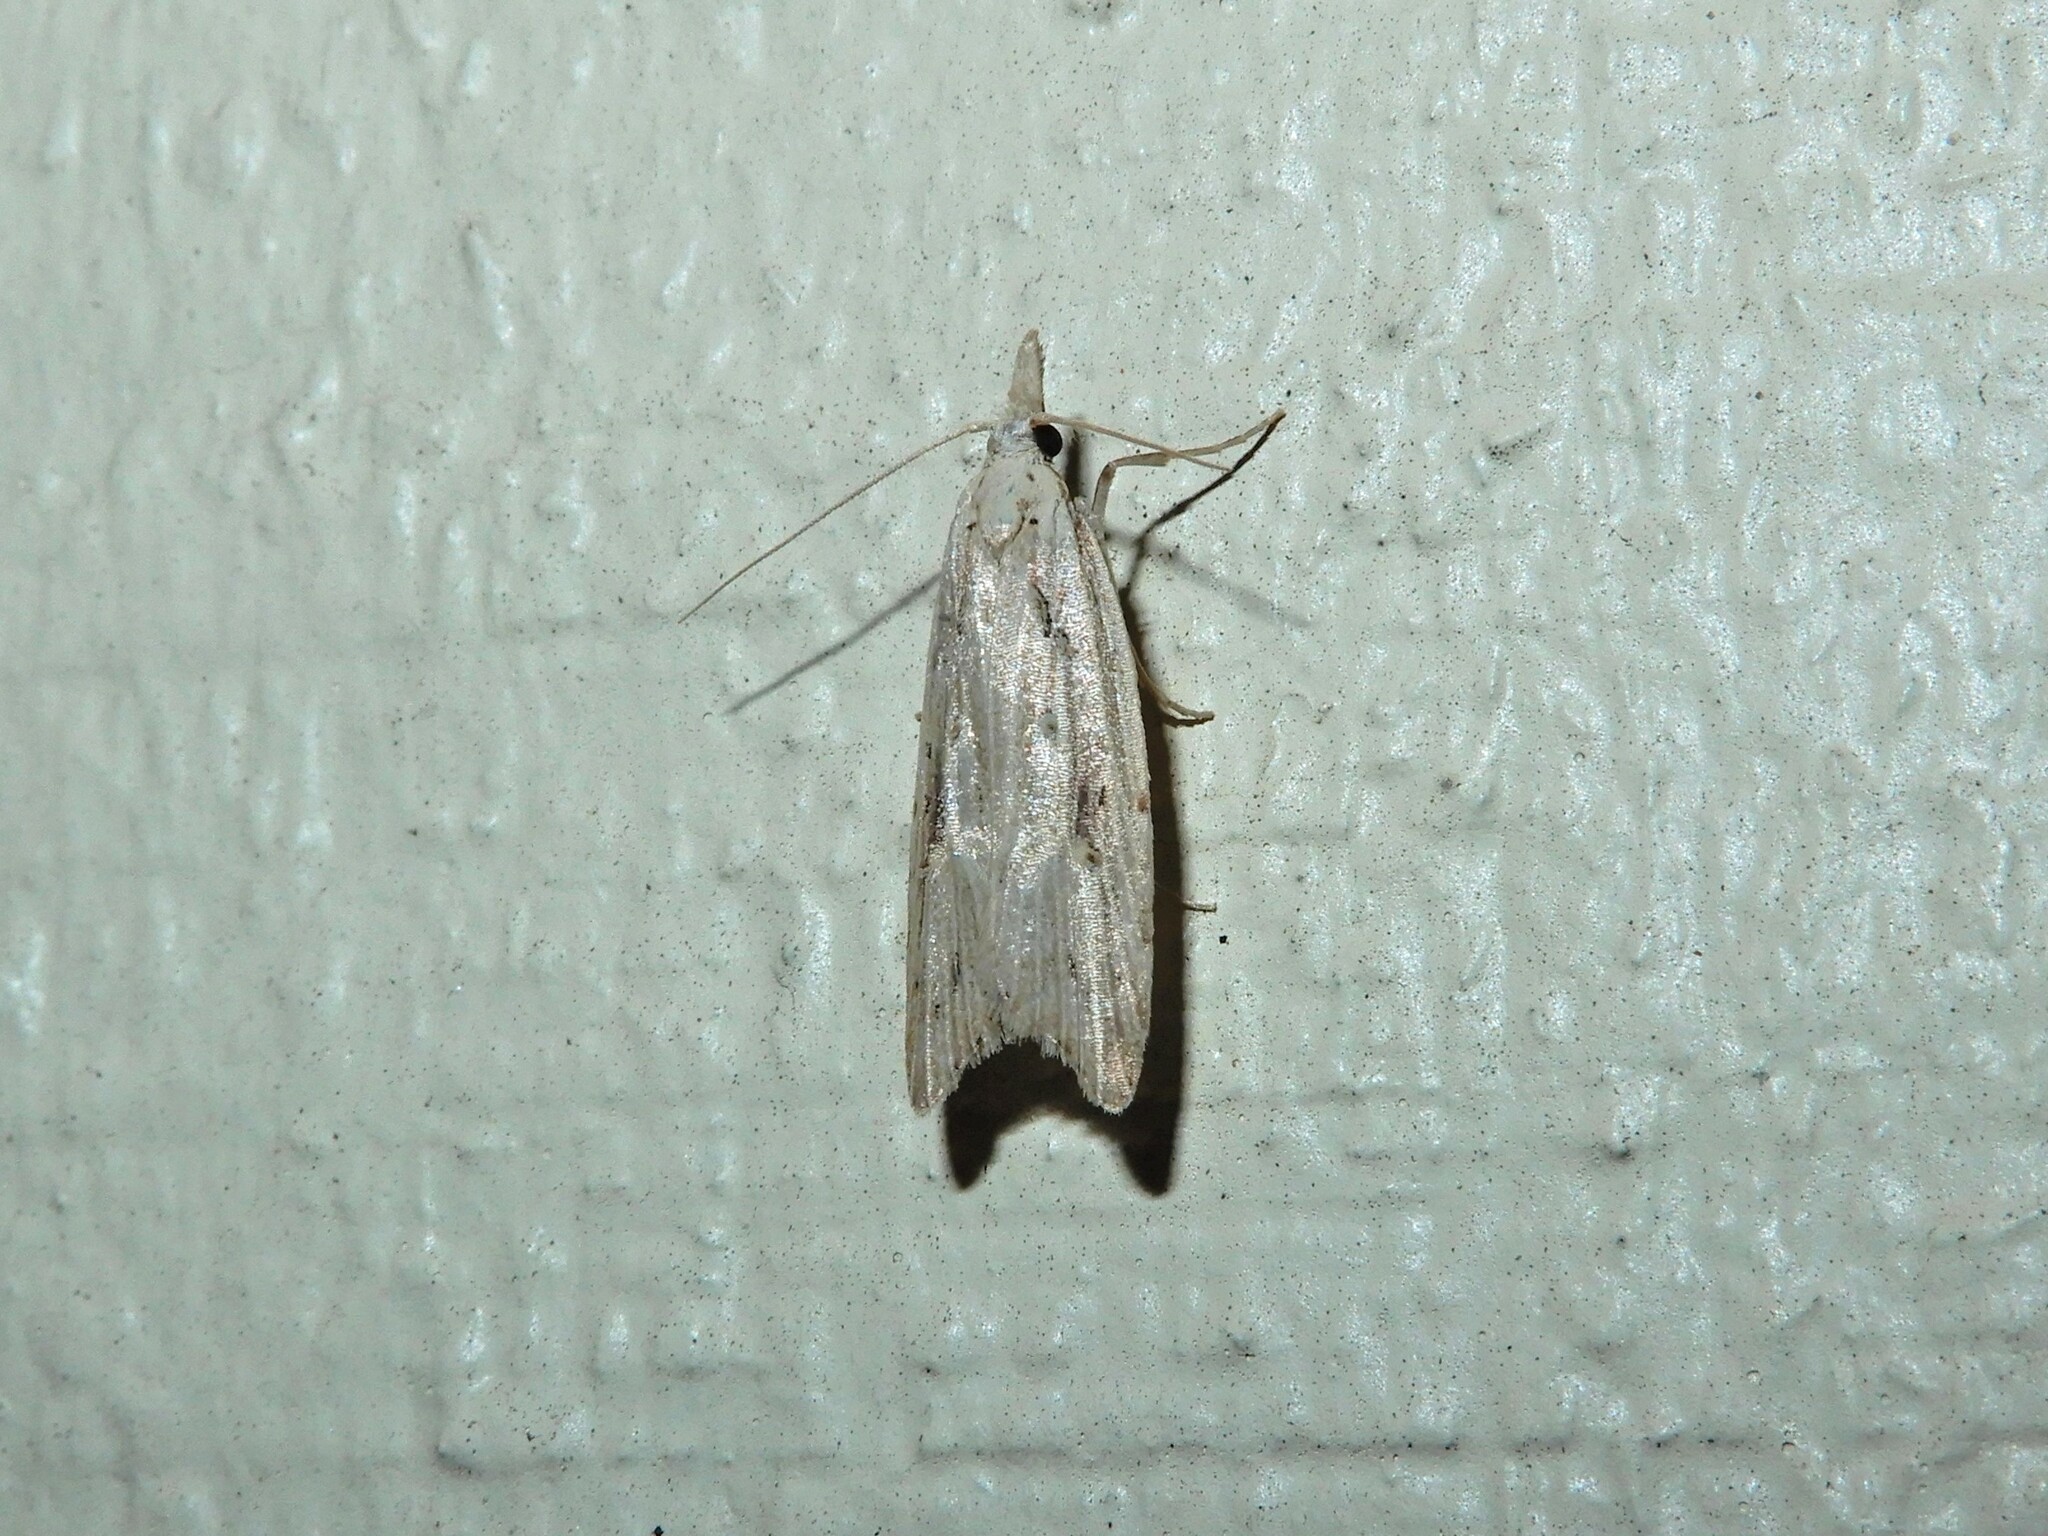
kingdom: Animalia
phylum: Arthropoda
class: Insecta
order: Lepidoptera
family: Carposinidae
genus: Carposina
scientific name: Carposina Heterocrossa exochana
